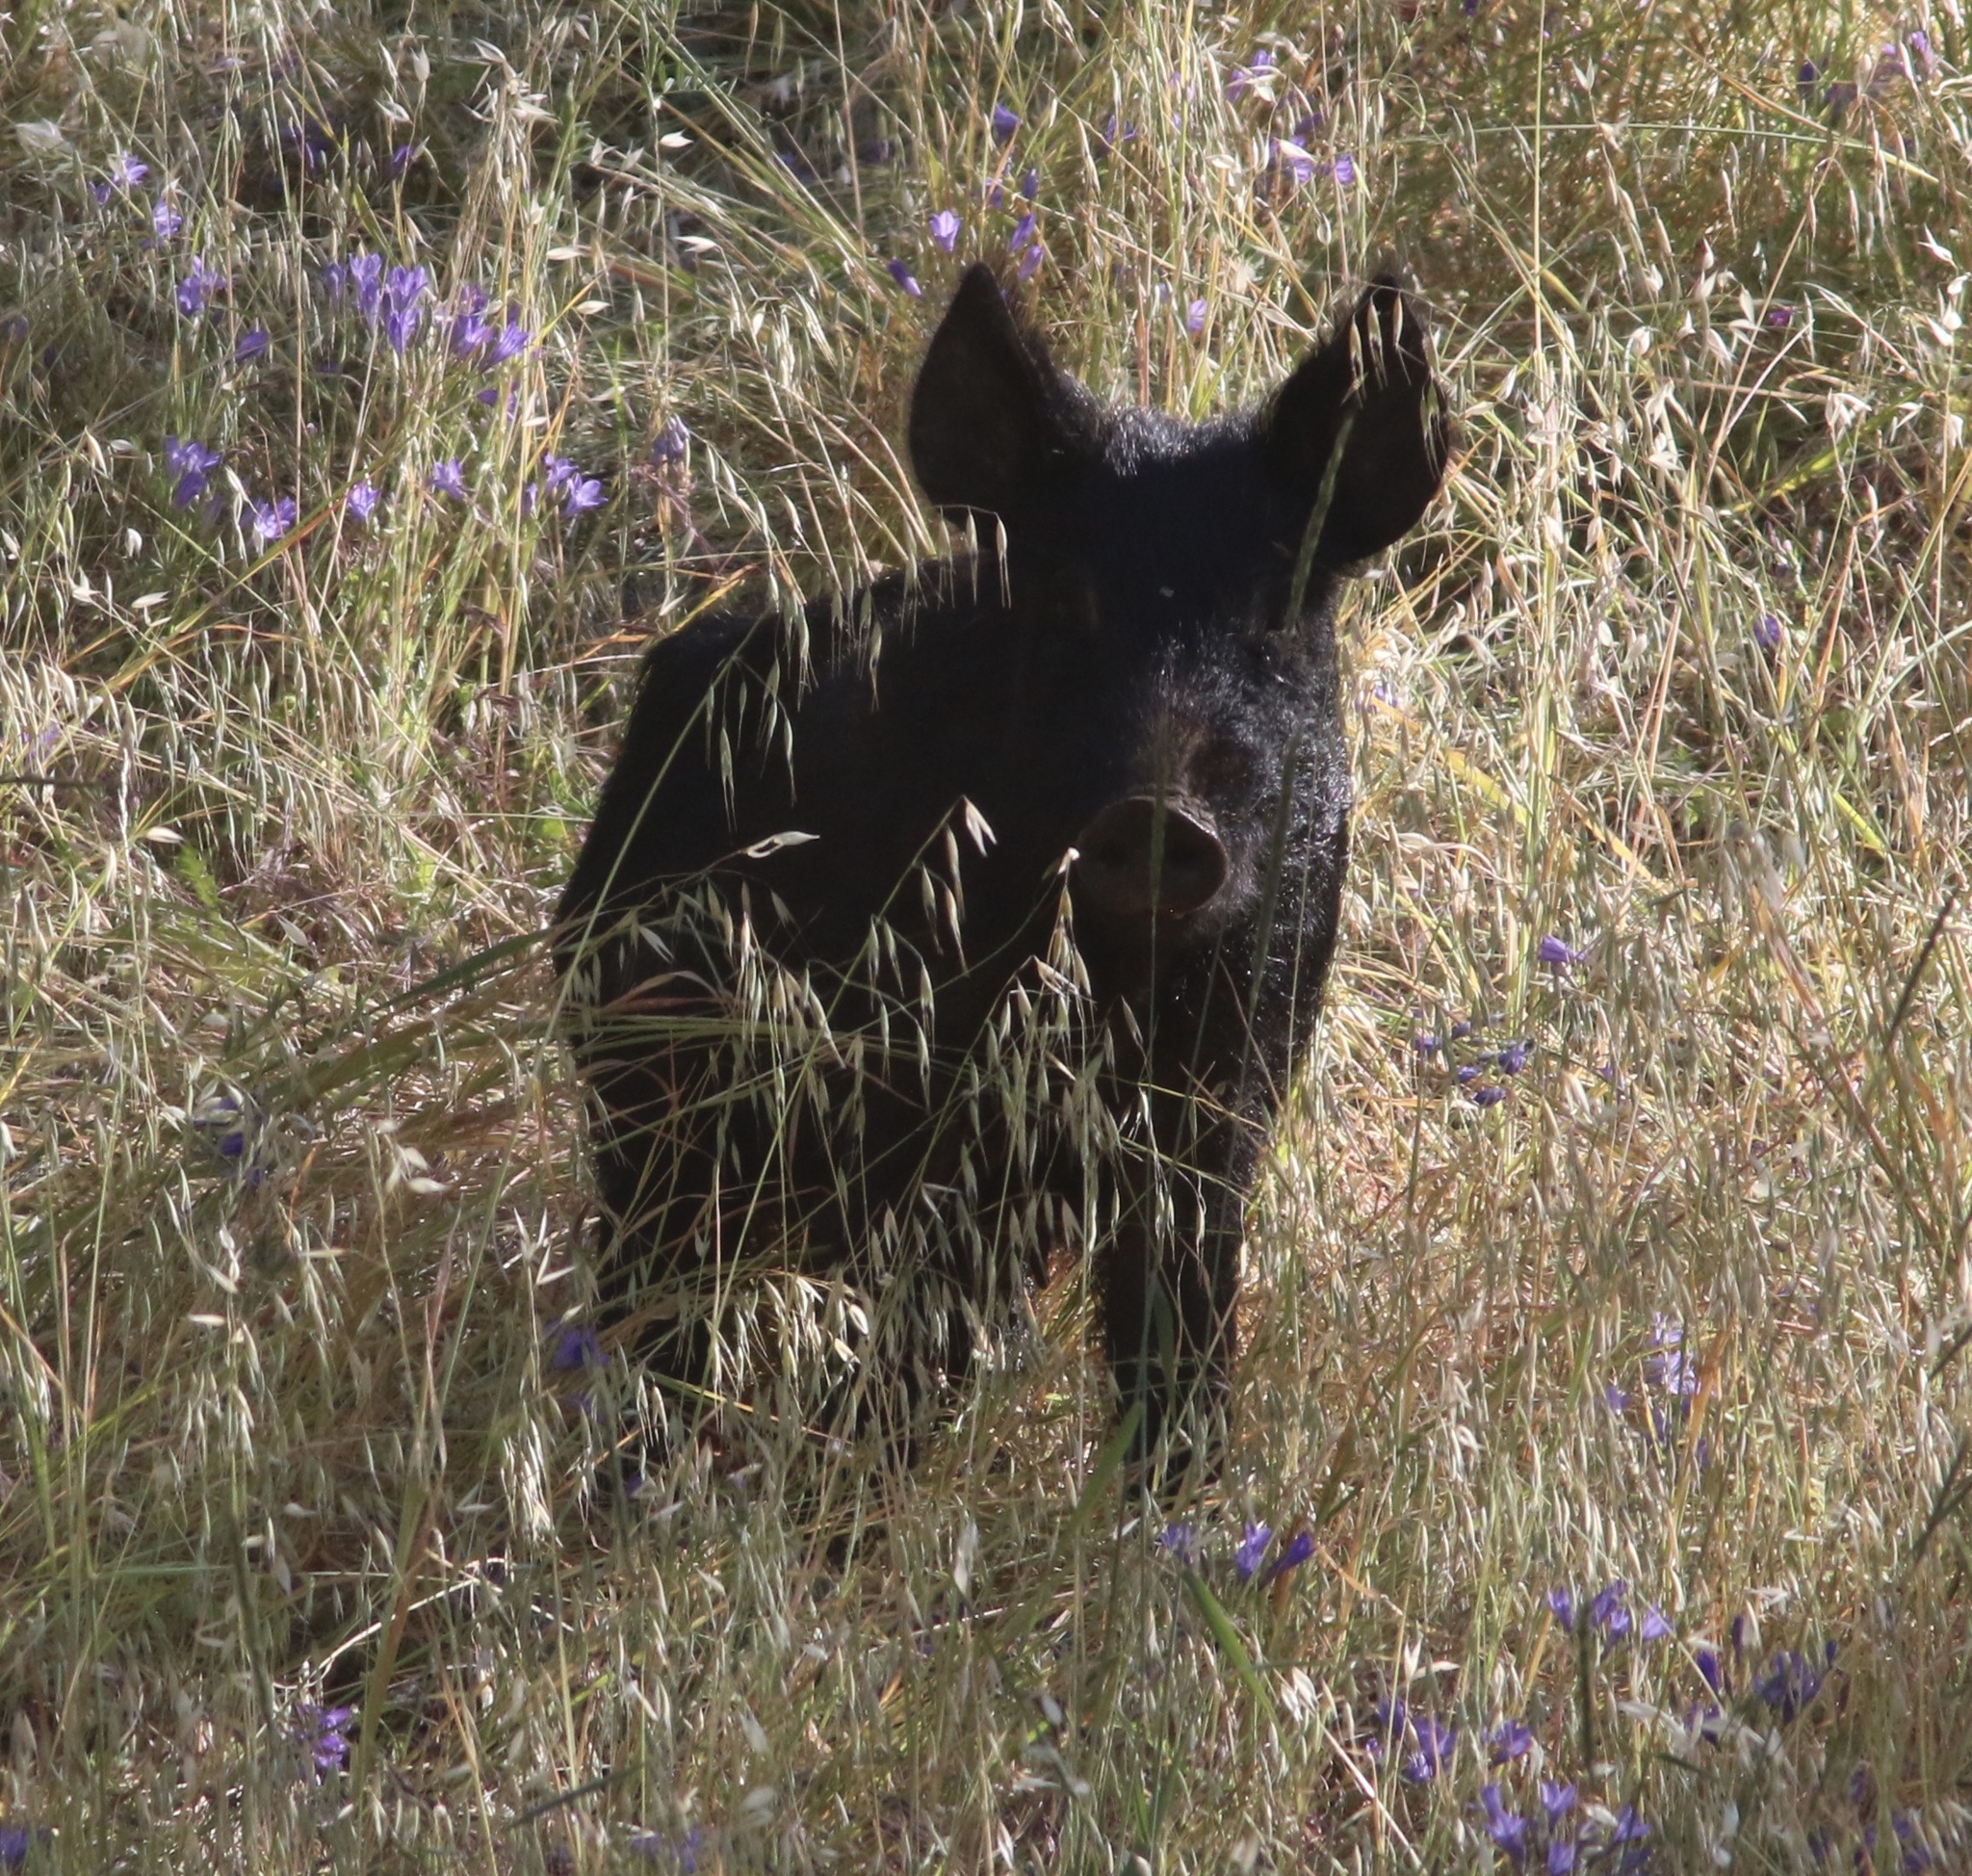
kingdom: Animalia
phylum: Chordata
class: Mammalia
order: Artiodactyla
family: Suidae
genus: Sus
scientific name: Sus scrofa
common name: Wild boar
